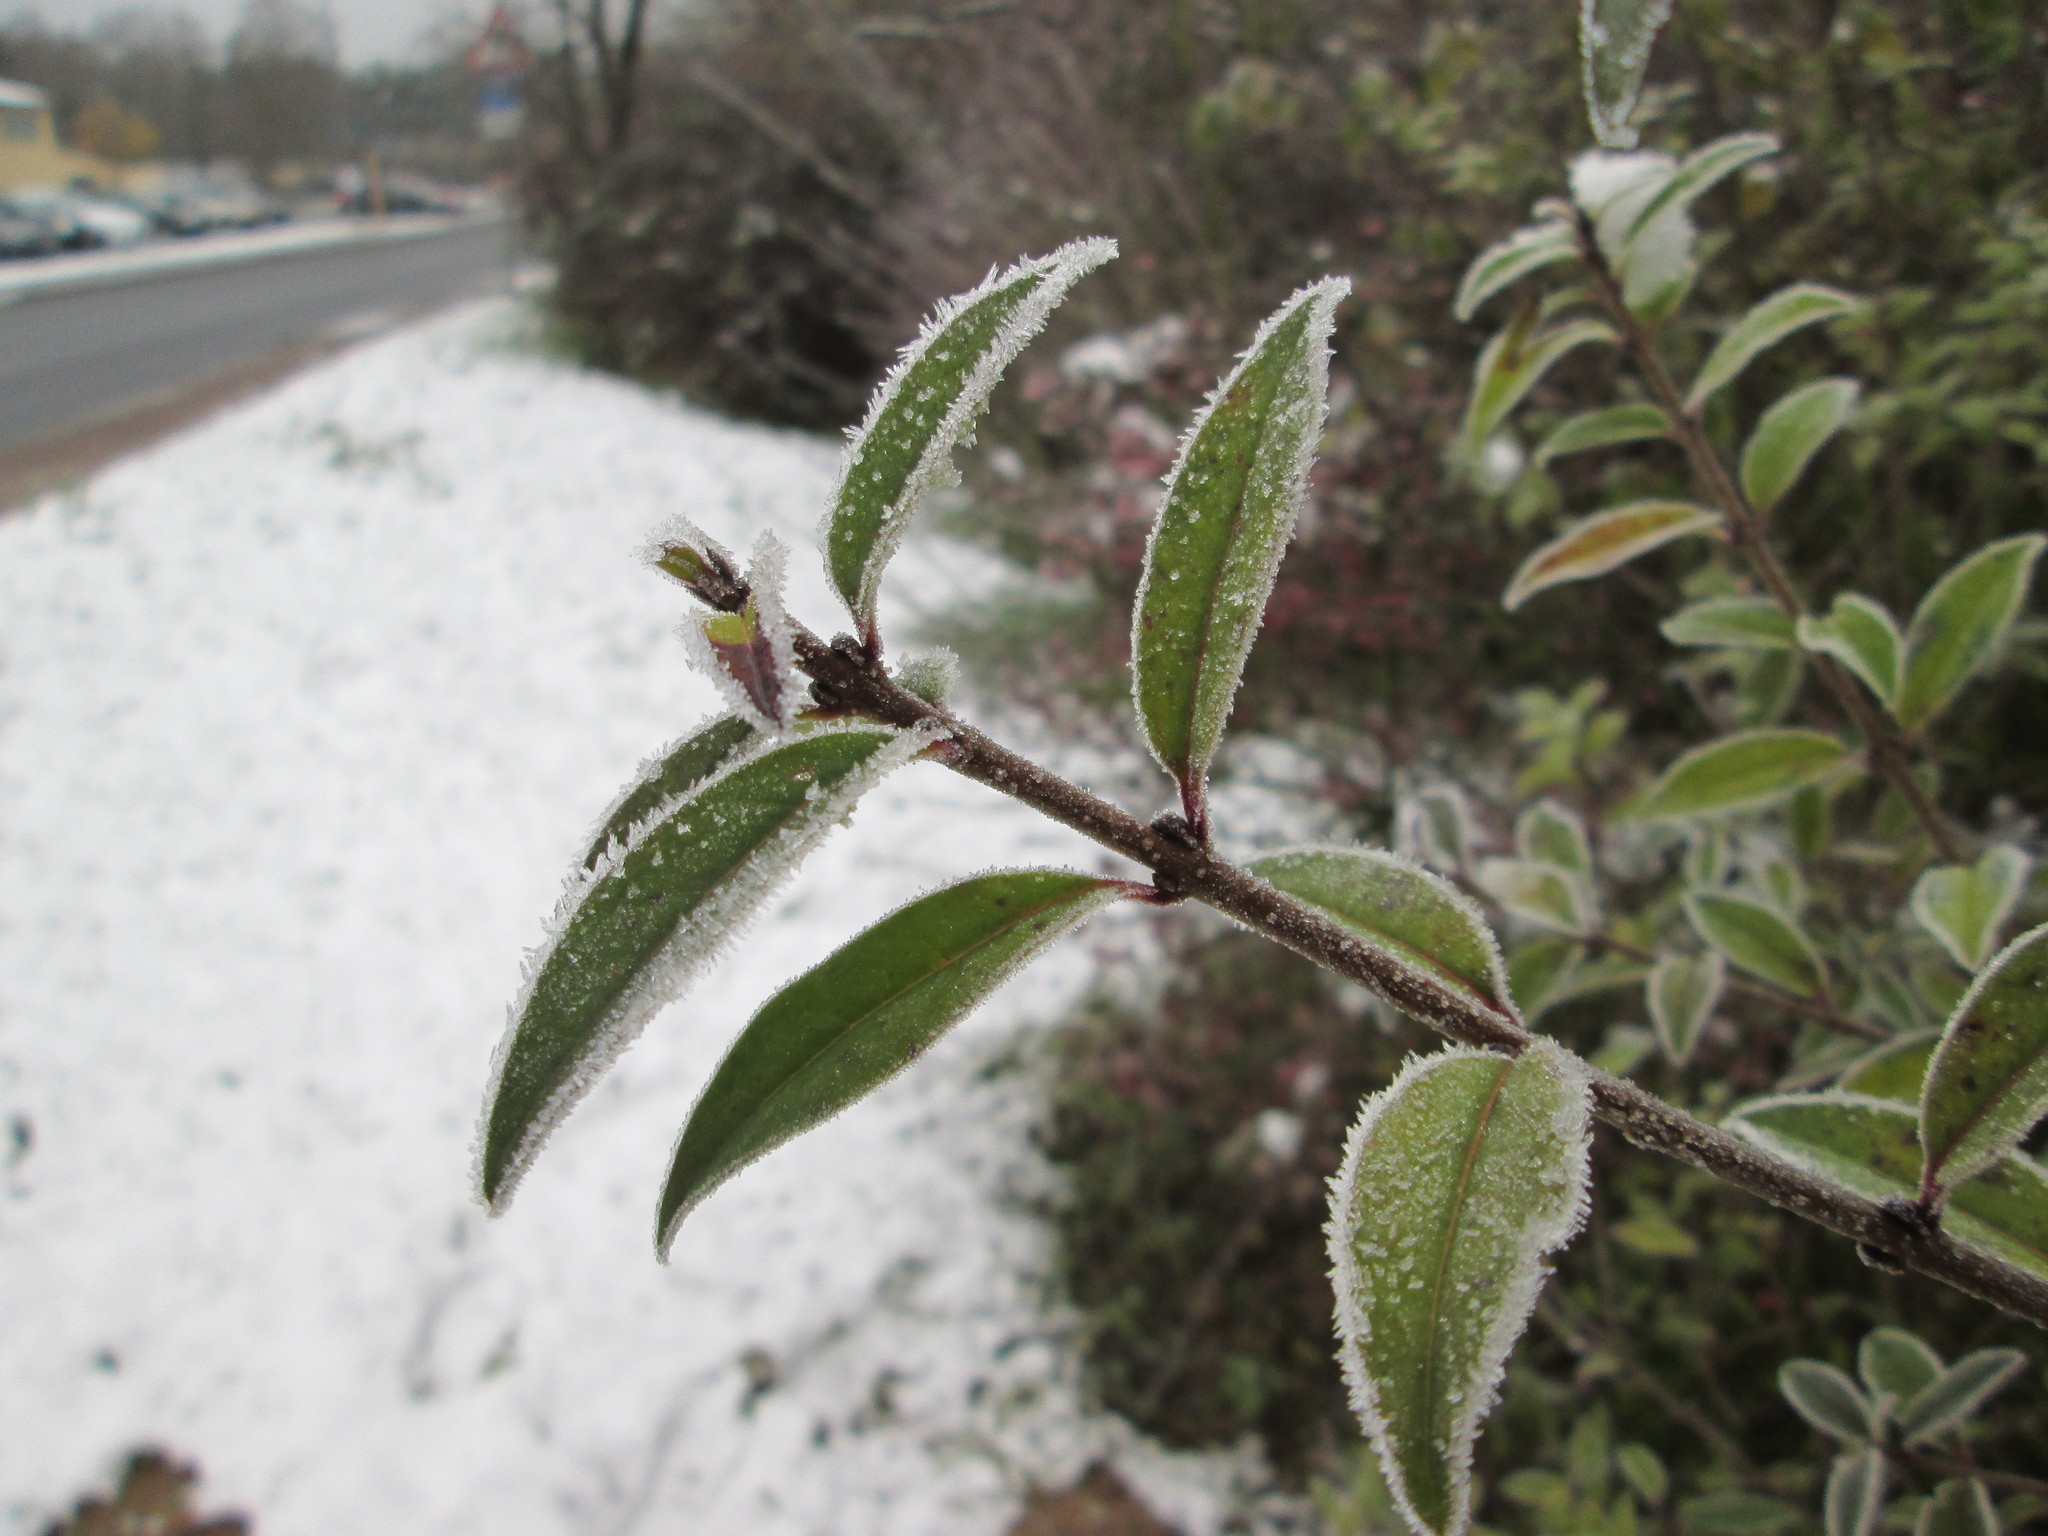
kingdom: Plantae
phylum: Tracheophyta
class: Magnoliopsida
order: Lamiales
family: Oleaceae
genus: Ligustrum
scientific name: Ligustrum vulgare
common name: Wild privet
